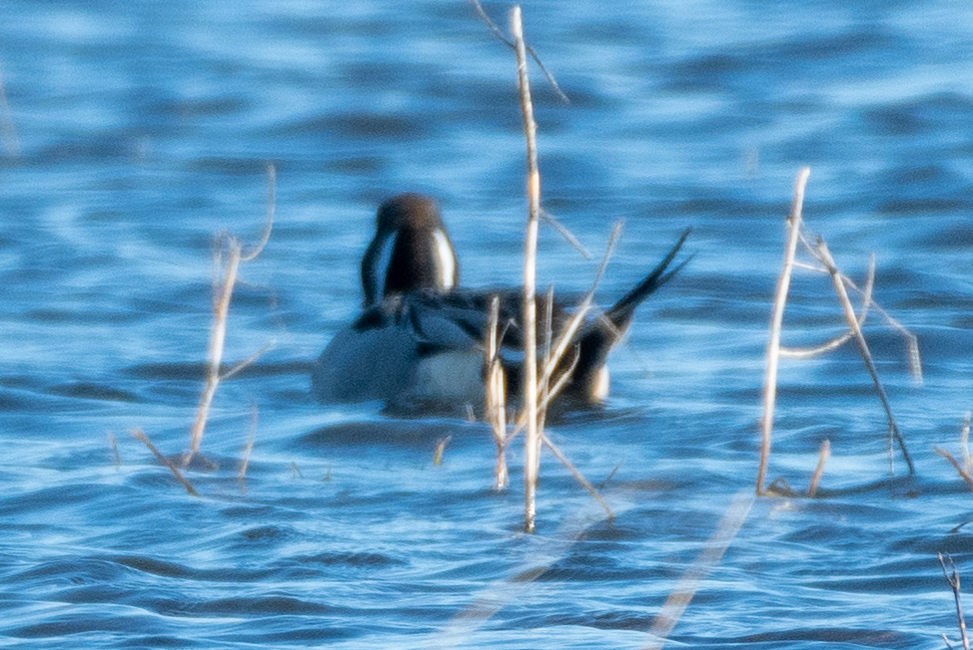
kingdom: Animalia
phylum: Chordata
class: Aves
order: Anseriformes
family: Anatidae
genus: Anas
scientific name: Anas acuta
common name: Northern pintail
